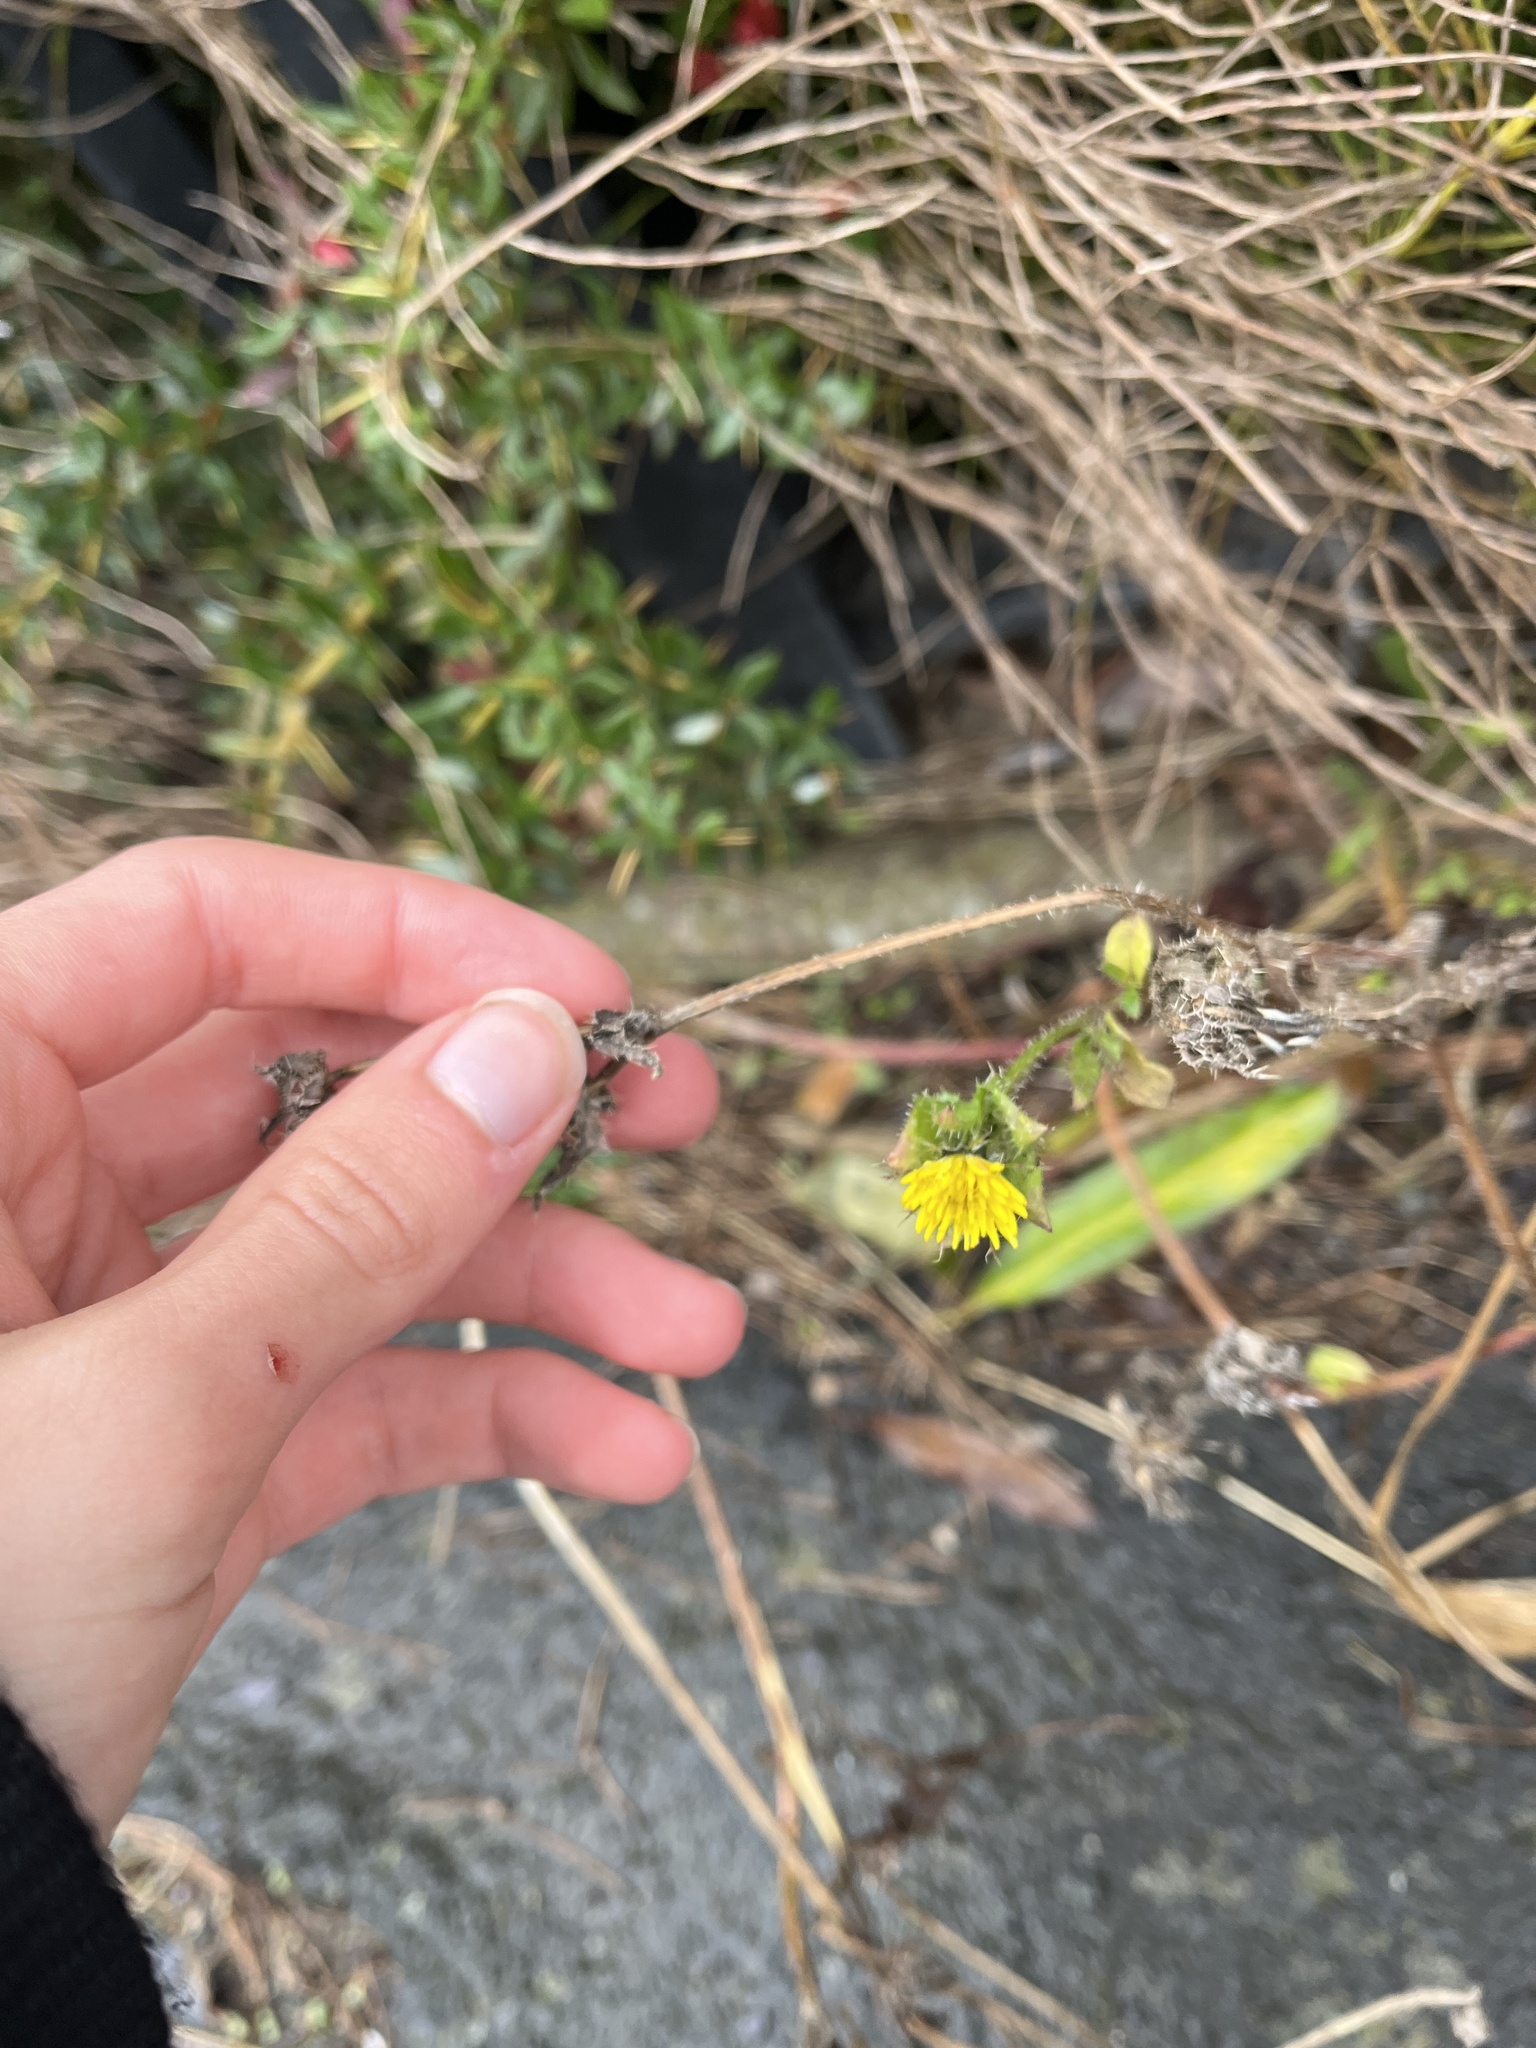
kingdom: Plantae
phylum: Tracheophyta
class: Magnoliopsida
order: Asterales
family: Asteraceae
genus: Helminthotheca
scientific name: Helminthotheca echioides
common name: Ox-tongue
